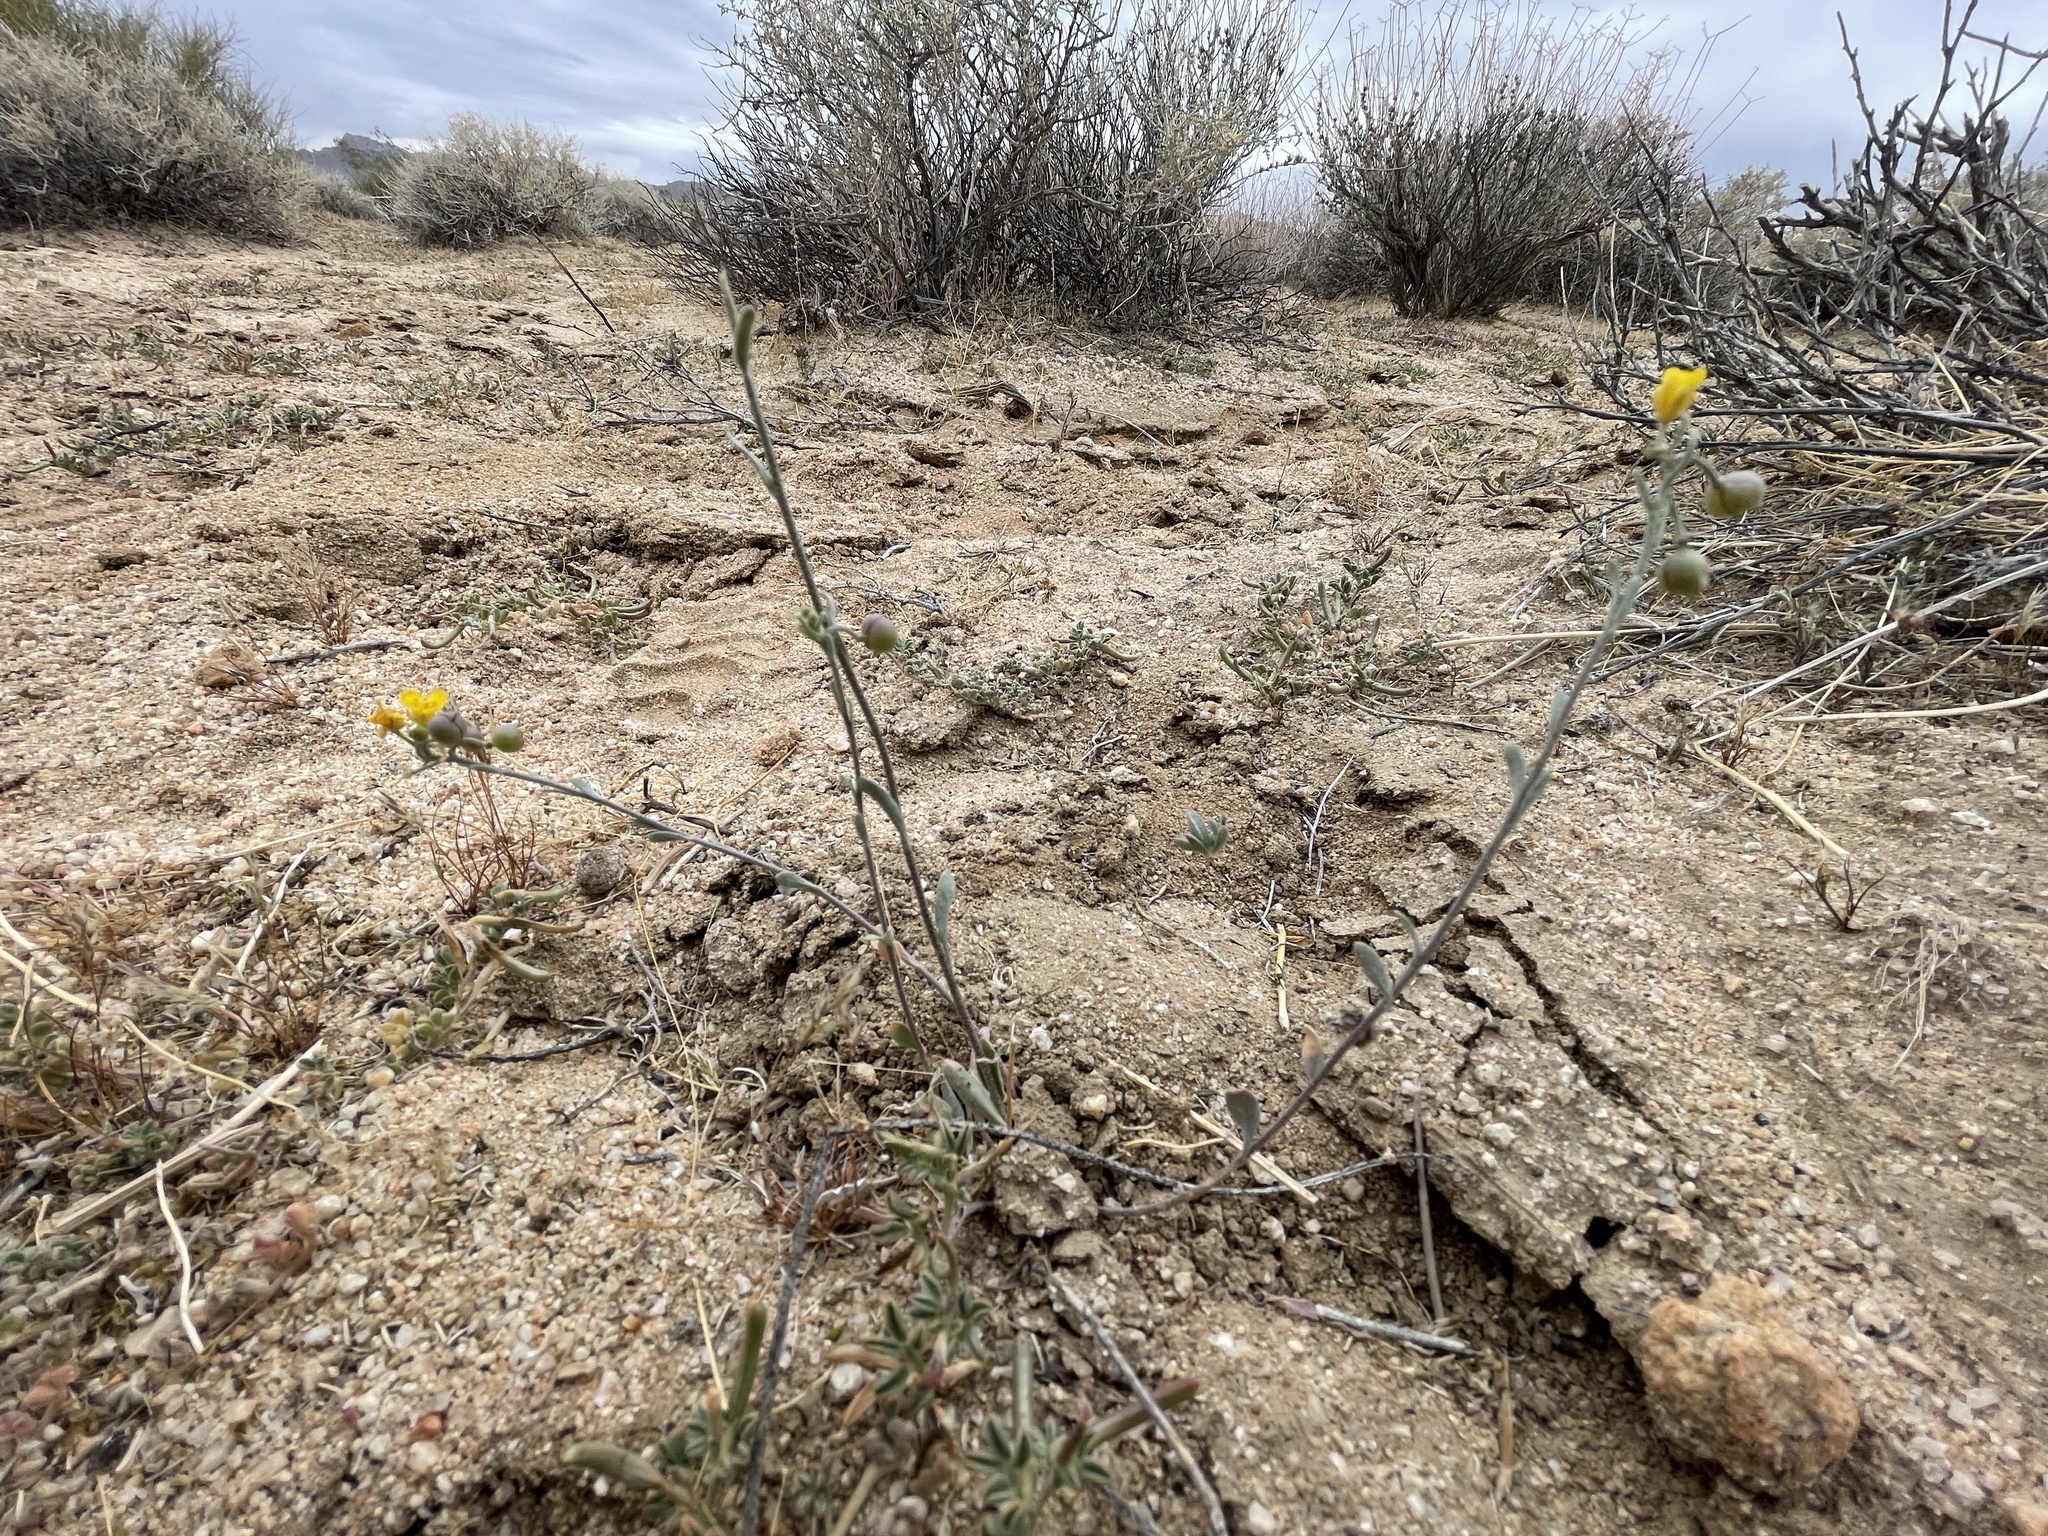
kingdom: Plantae
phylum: Tracheophyta
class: Magnoliopsida
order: Brassicales
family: Brassicaceae
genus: Physaria
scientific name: Physaria tenella
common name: Moapa bladderpod
